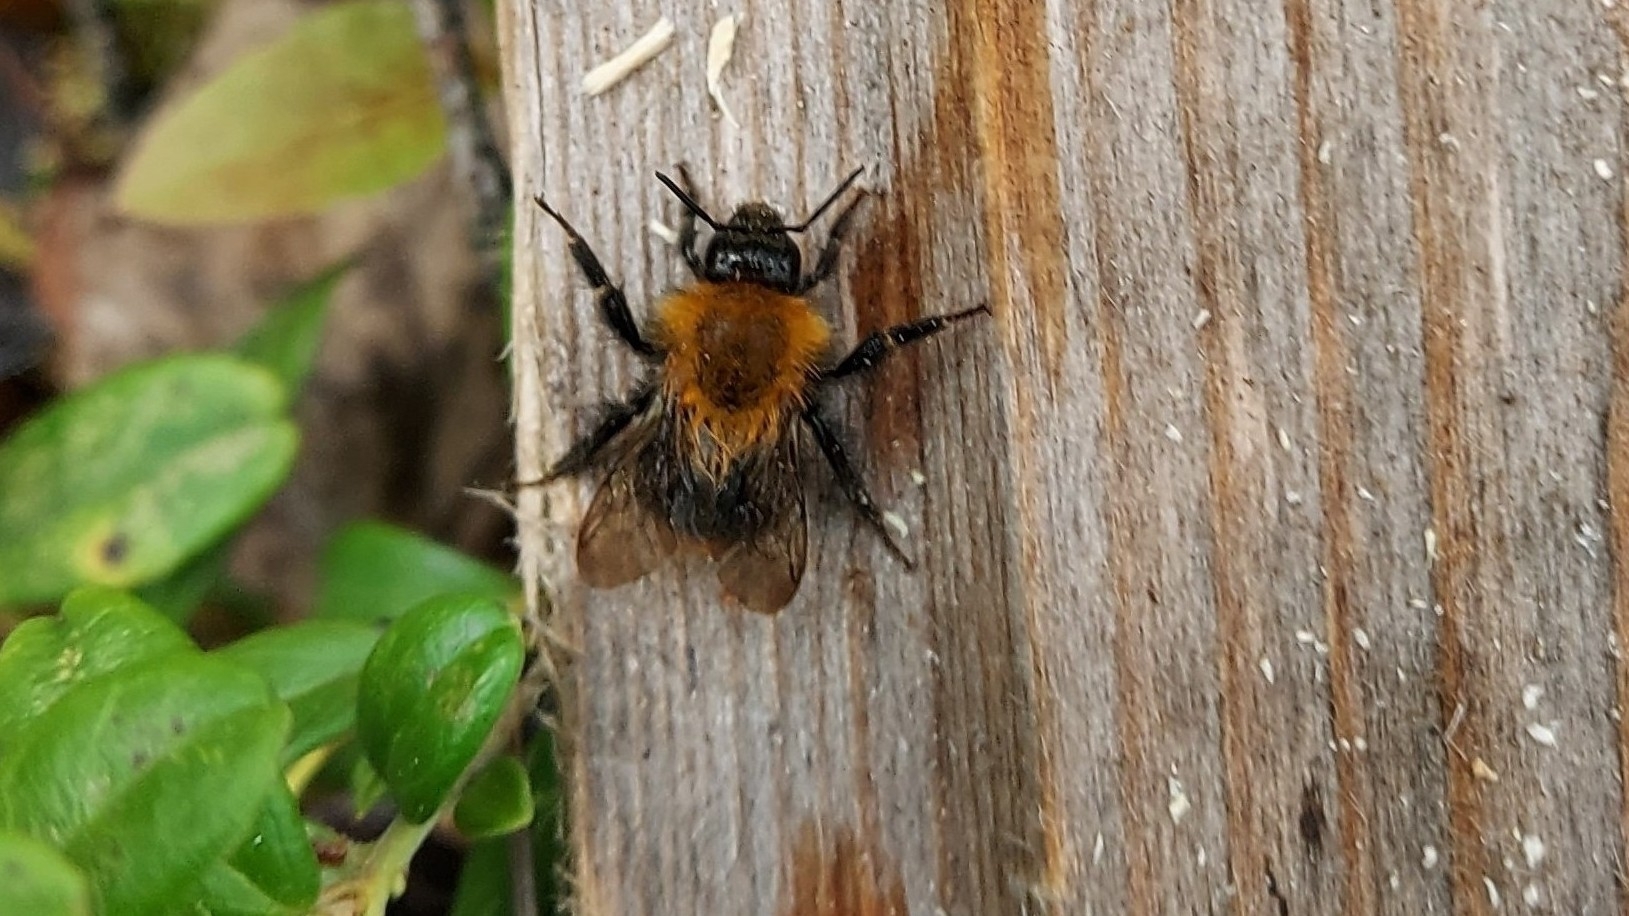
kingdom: Animalia
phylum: Arthropoda
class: Insecta
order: Hymenoptera
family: Apidae
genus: Bombus
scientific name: Bombus pascuorum
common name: Common carder bee
